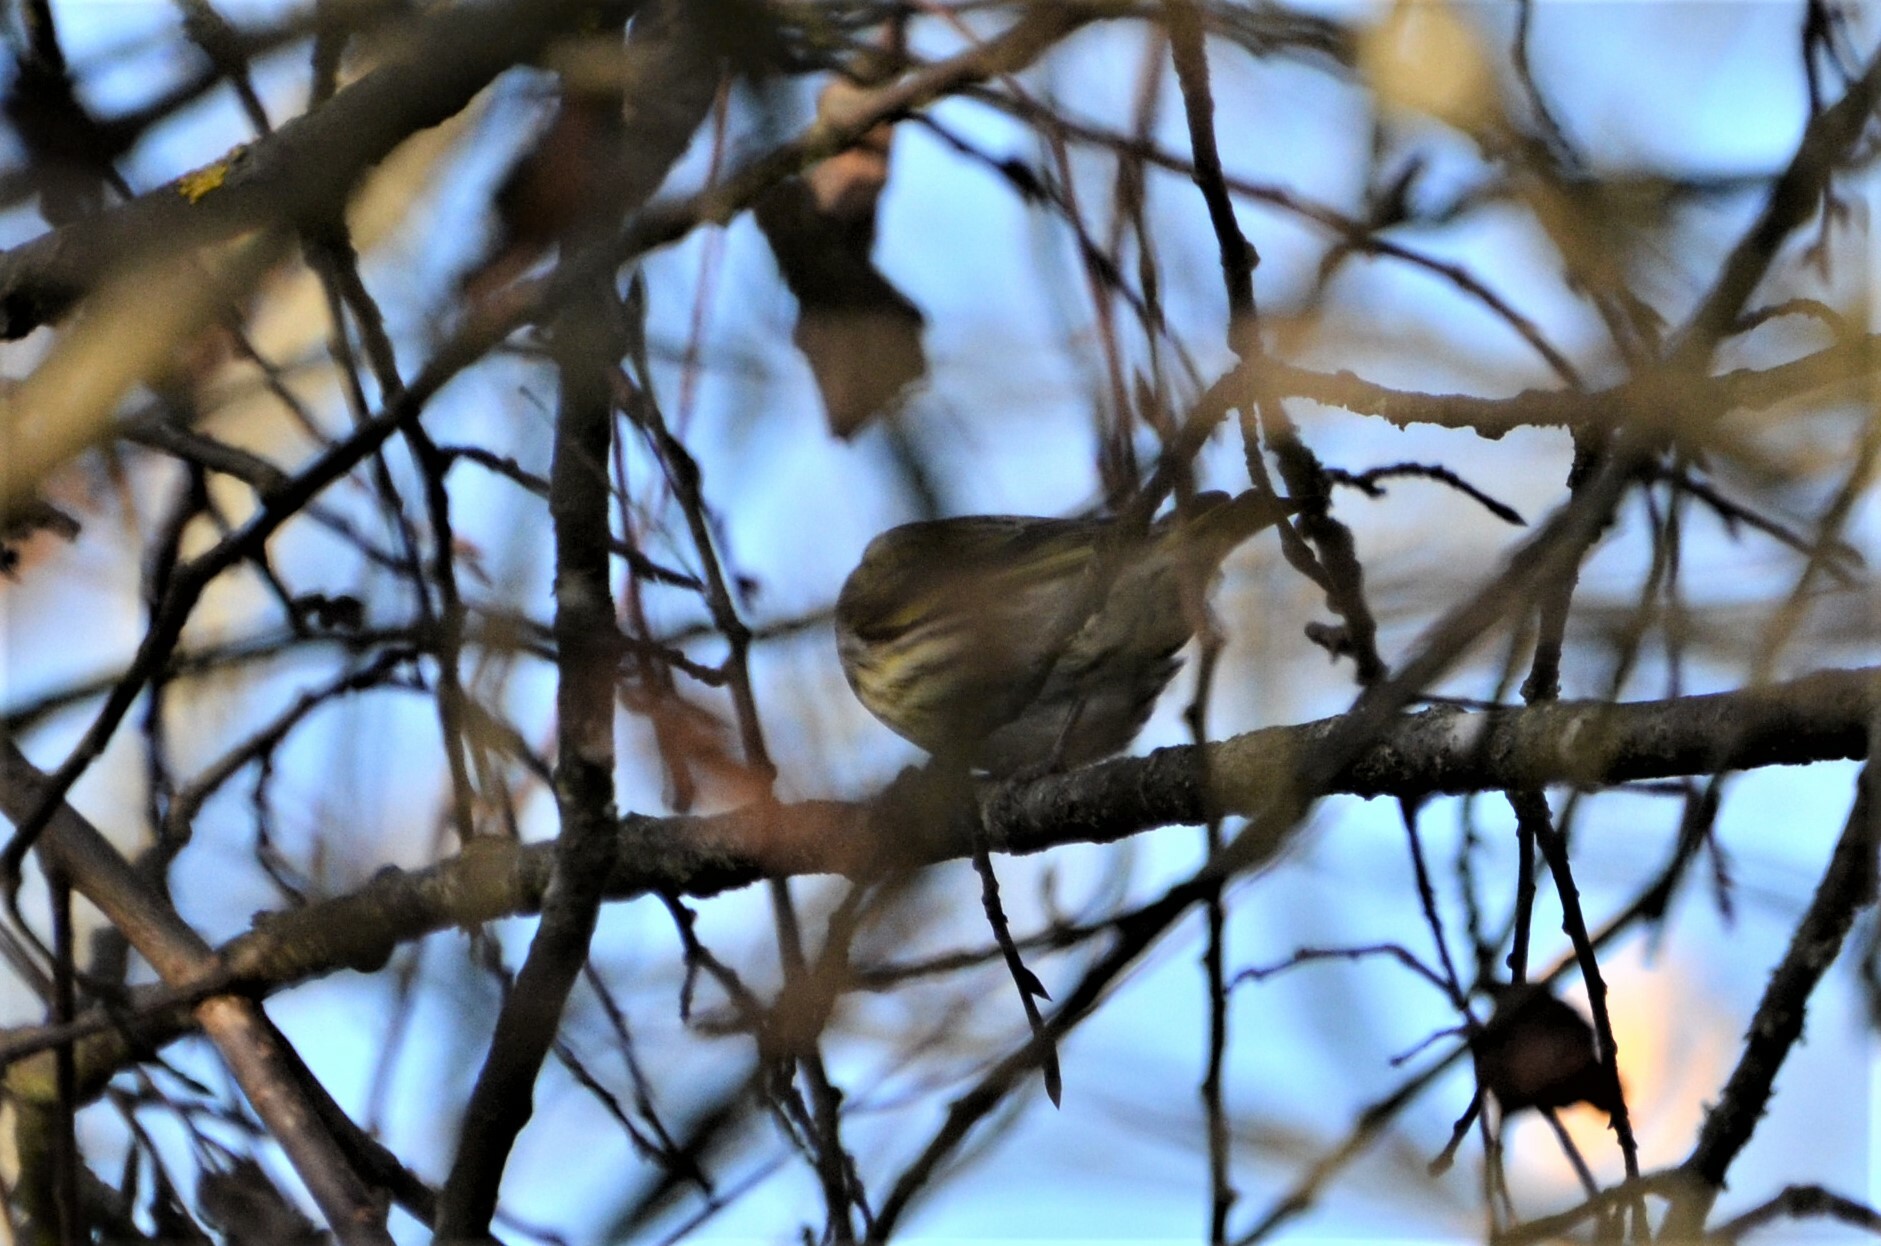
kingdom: Animalia
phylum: Chordata
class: Aves
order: Passeriformes
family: Fringillidae
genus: Spinus
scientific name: Spinus spinus
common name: Eurasian siskin
